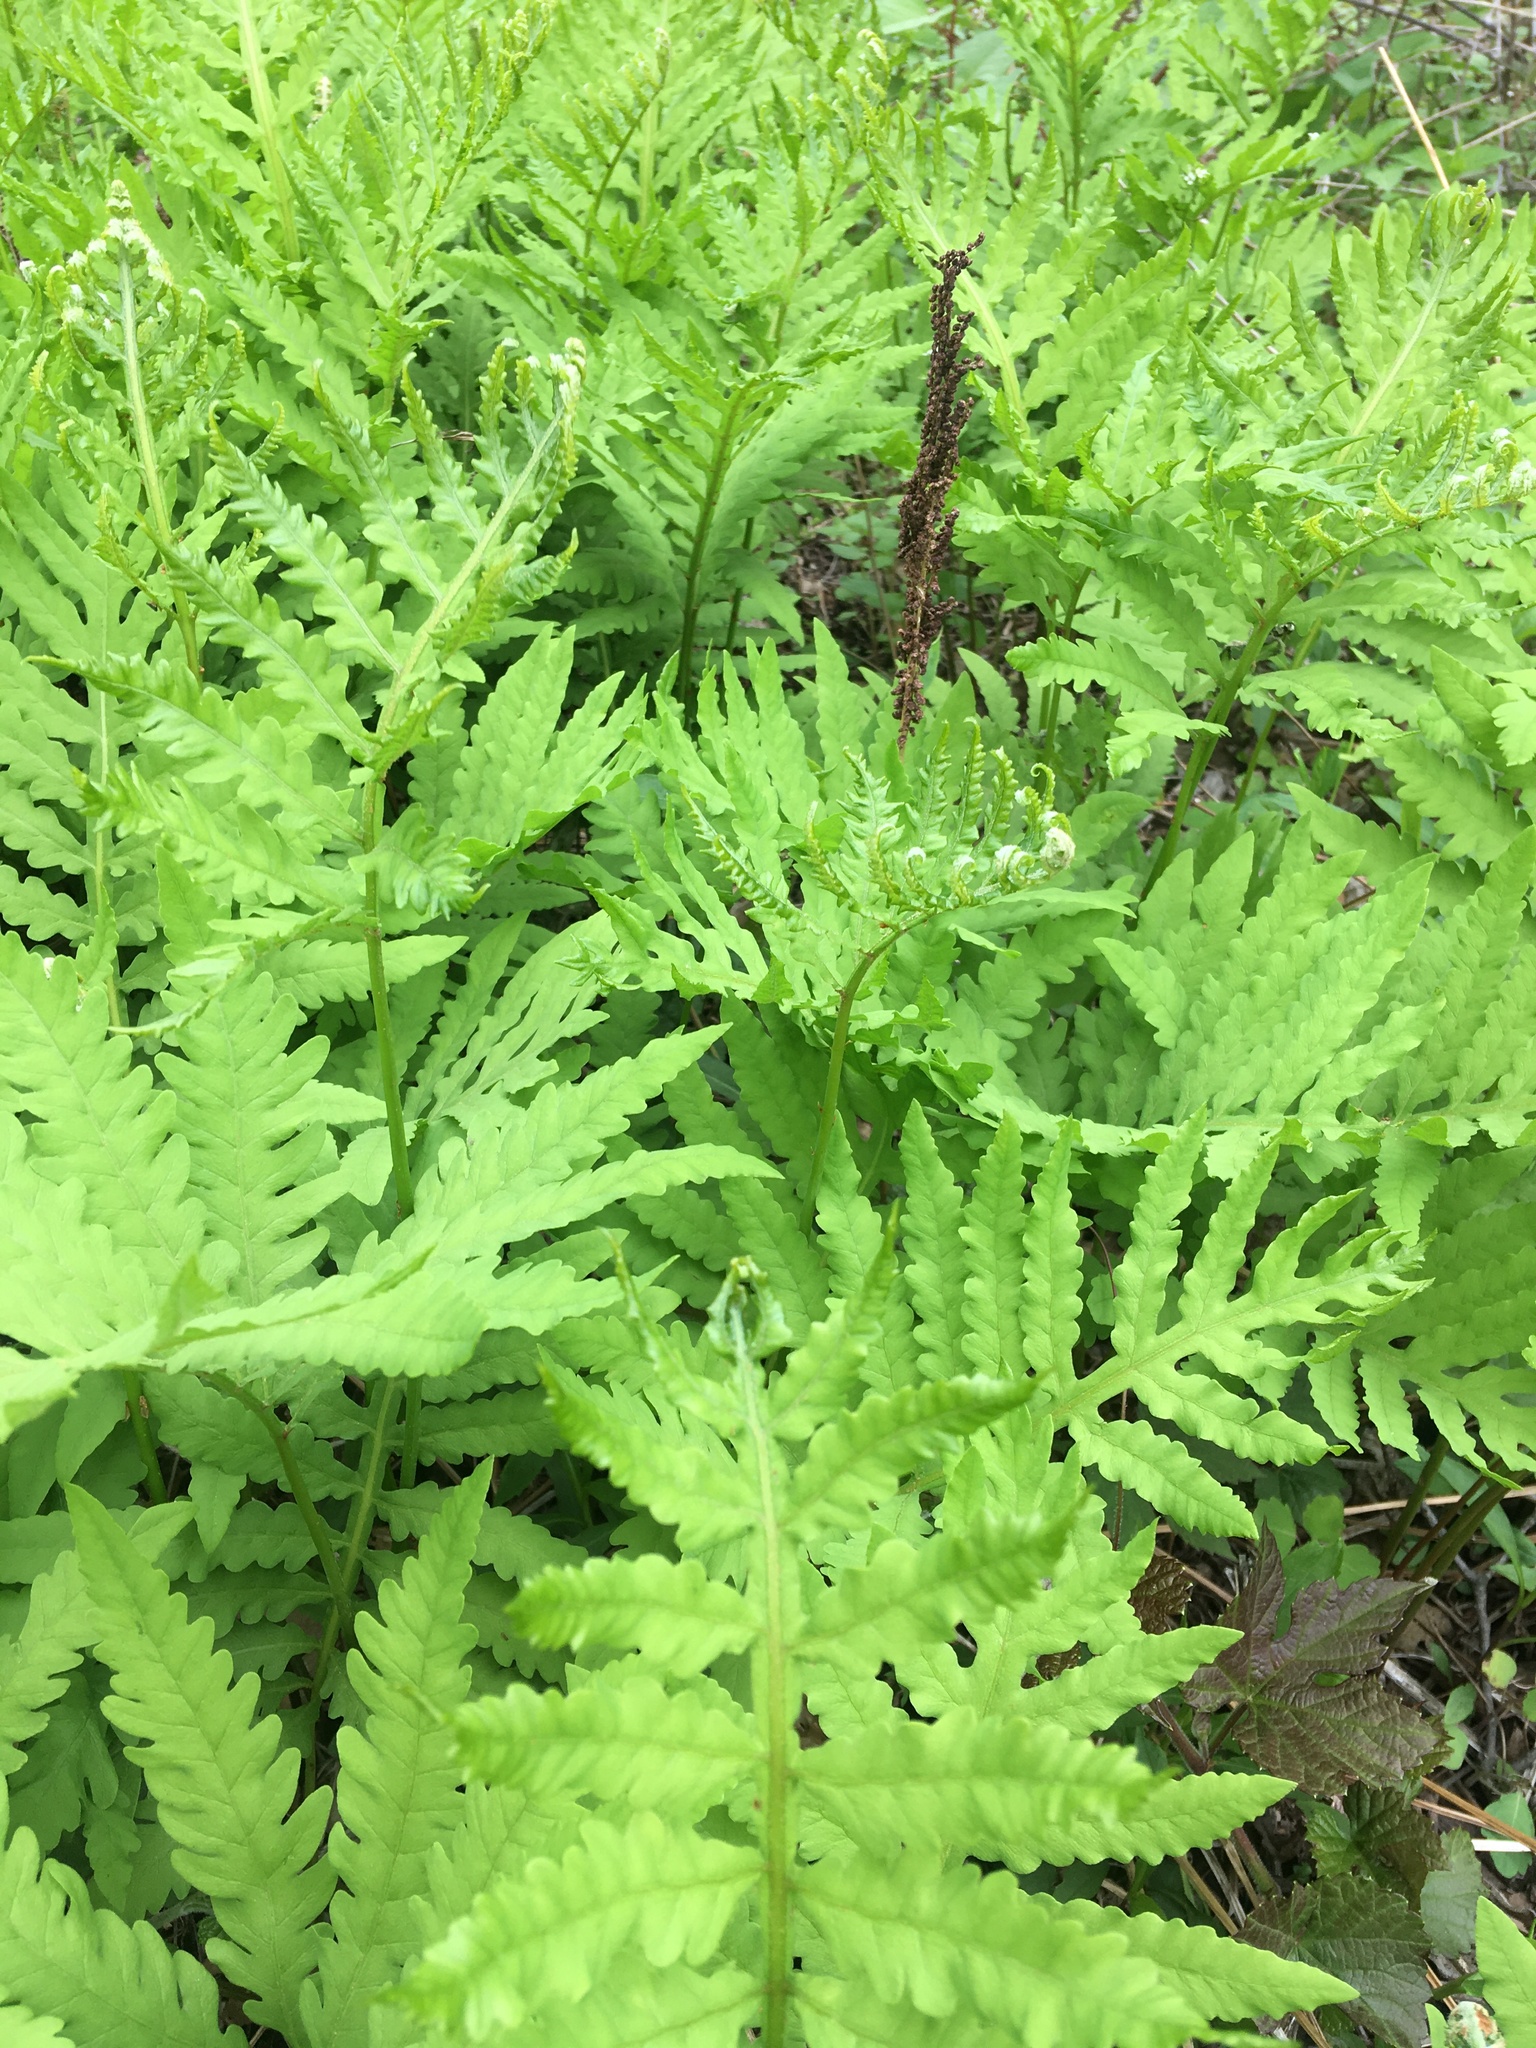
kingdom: Plantae
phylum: Tracheophyta
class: Polypodiopsida
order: Polypodiales
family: Onocleaceae
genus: Onoclea
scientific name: Onoclea sensibilis
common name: Sensitive fern
